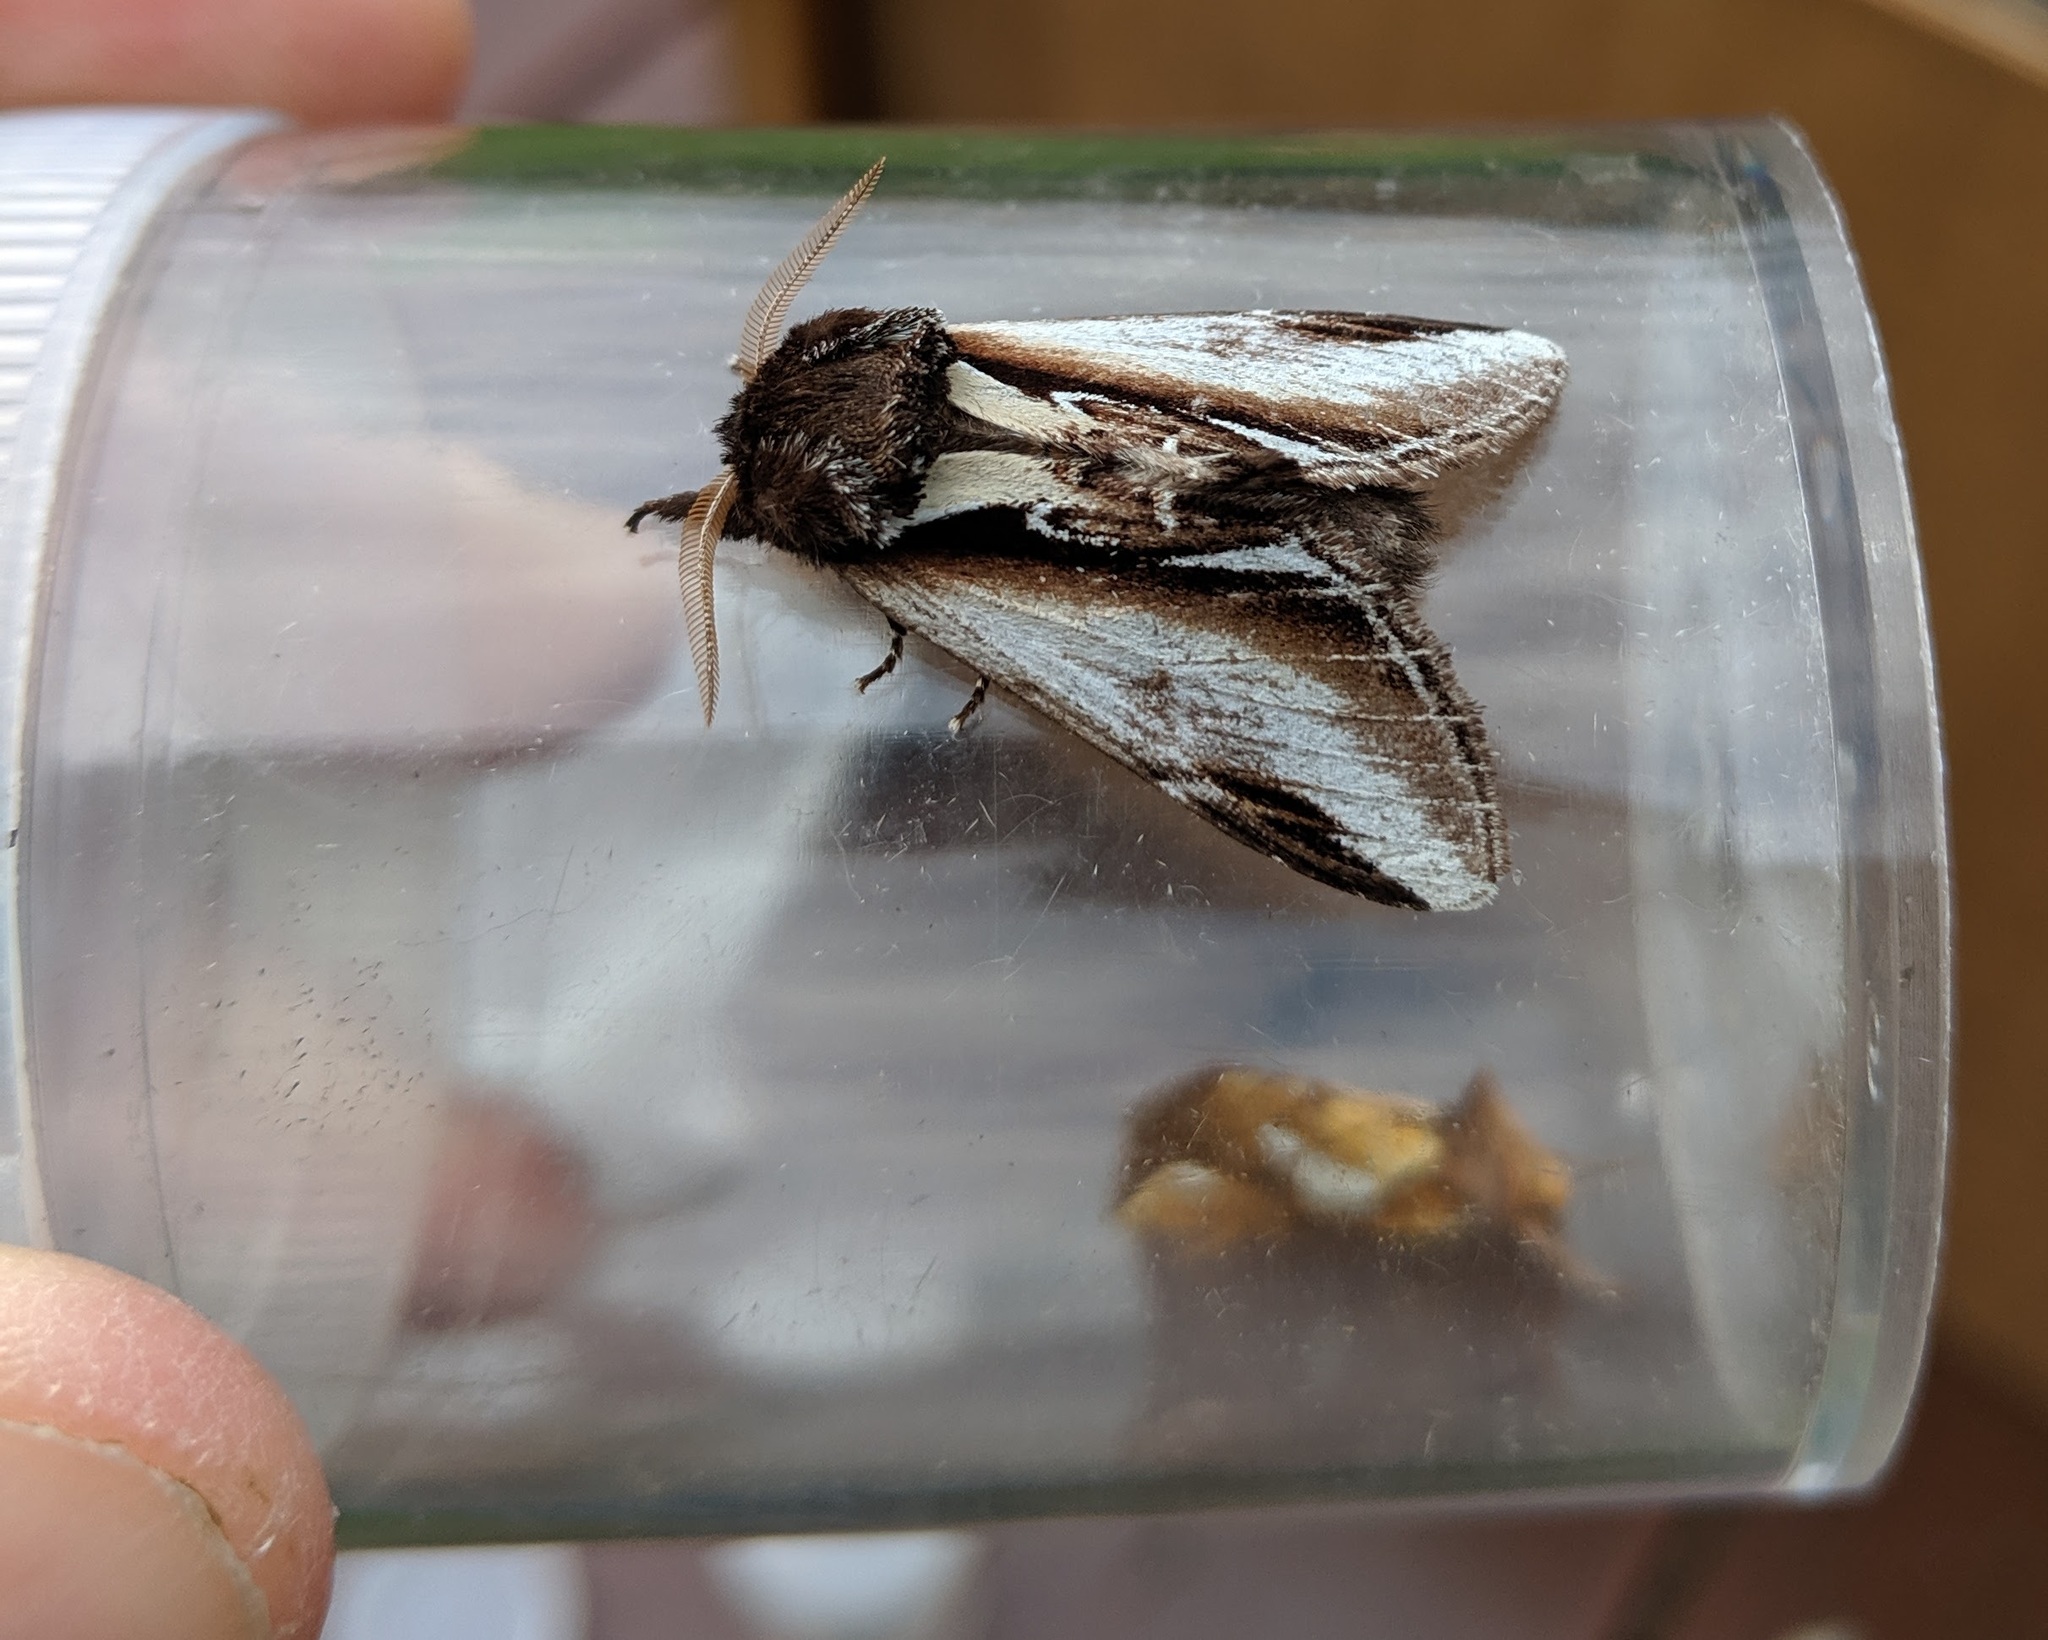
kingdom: Animalia
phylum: Arthropoda
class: Insecta
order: Lepidoptera
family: Notodontidae
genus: Pheosia
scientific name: Pheosia gnoma
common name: Lesser swallow prominent
